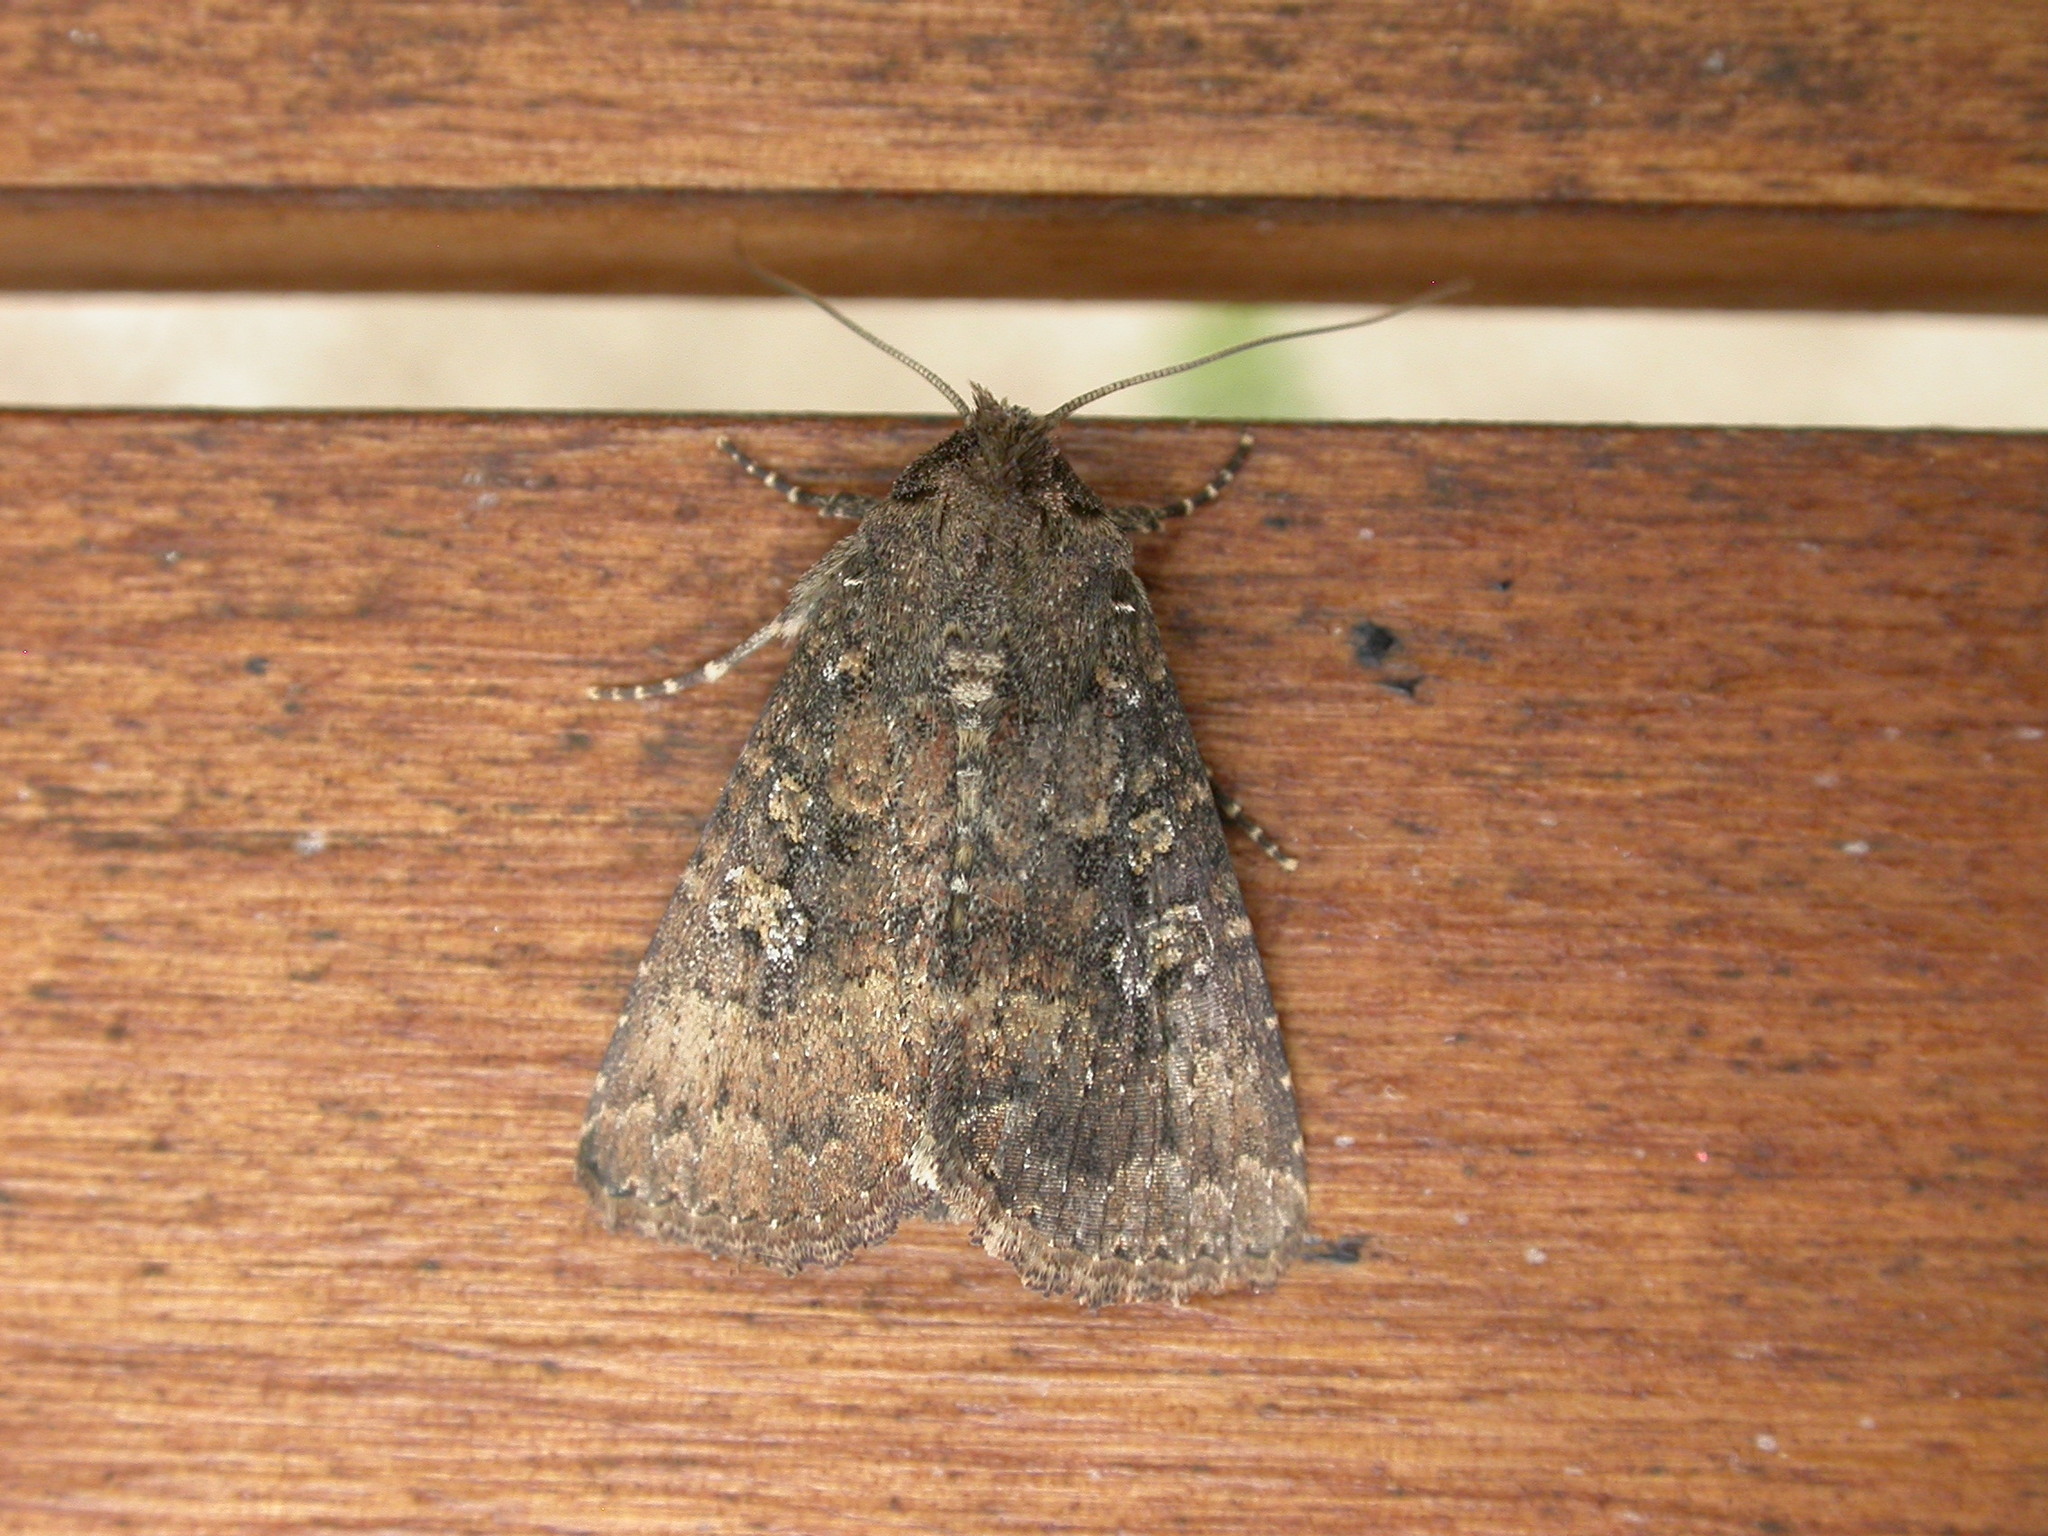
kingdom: Animalia
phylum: Arthropoda
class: Insecta
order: Lepidoptera
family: Noctuidae
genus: Condica
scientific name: Condica illecta
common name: Cutworm
